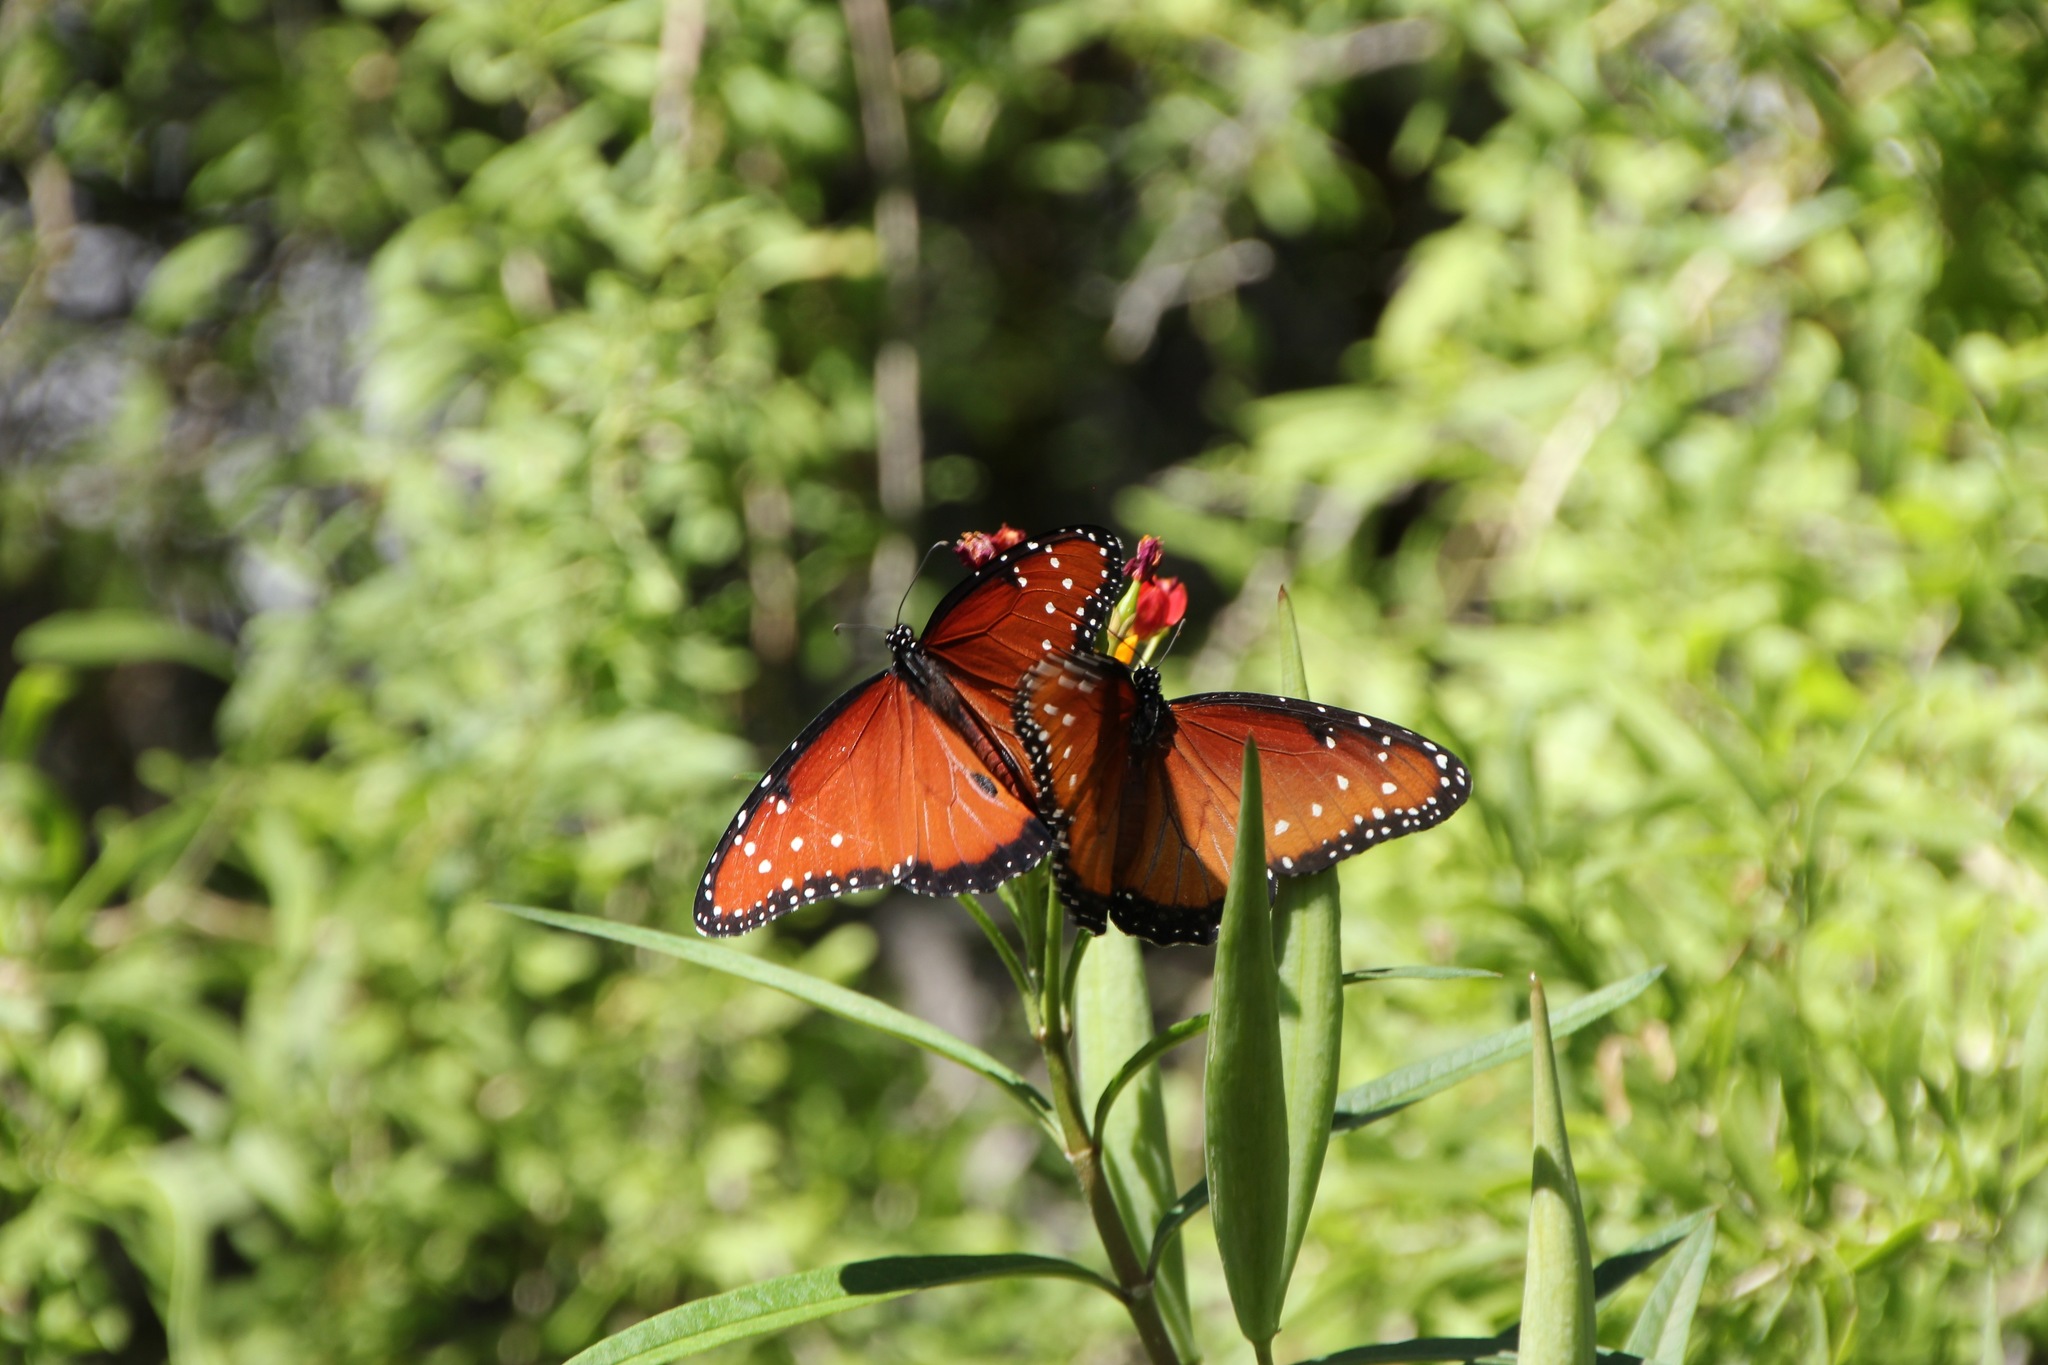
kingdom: Animalia
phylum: Arthropoda
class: Insecta
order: Lepidoptera
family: Nymphalidae
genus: Danaus
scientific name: Danaus gilippus
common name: Queen
